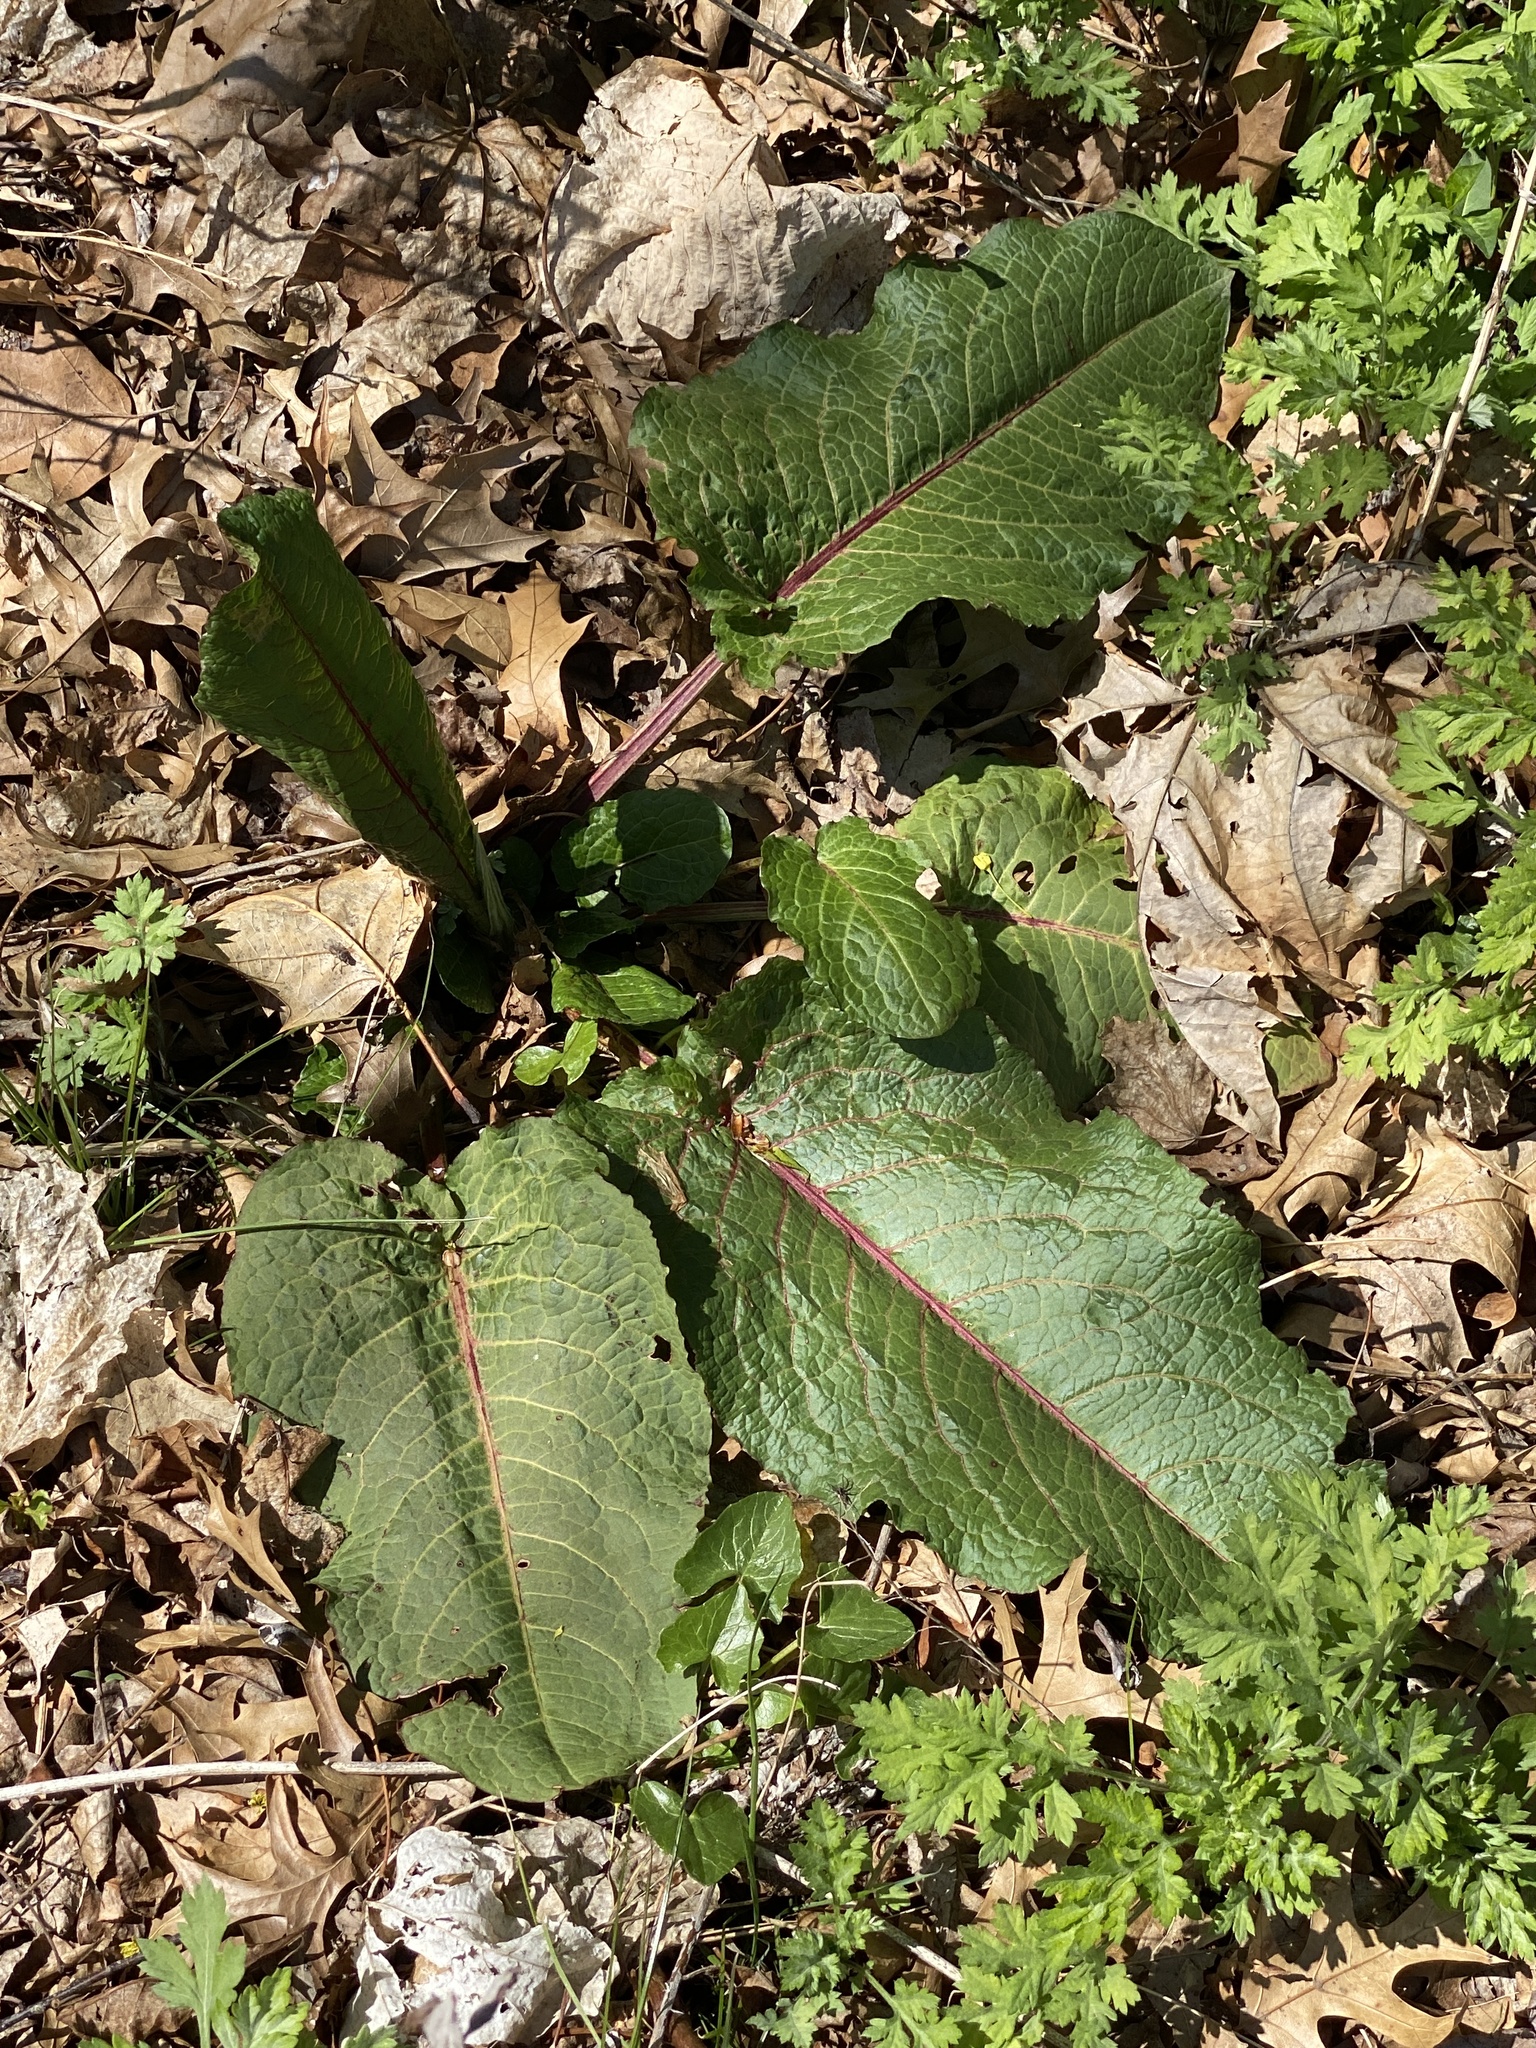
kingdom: Plantae
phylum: Tracheophyta
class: Magnoliopsida
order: Caryophyllales
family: Polygonaceae
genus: Rumex
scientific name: Rumex obtusifolius
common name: Bitter dock
